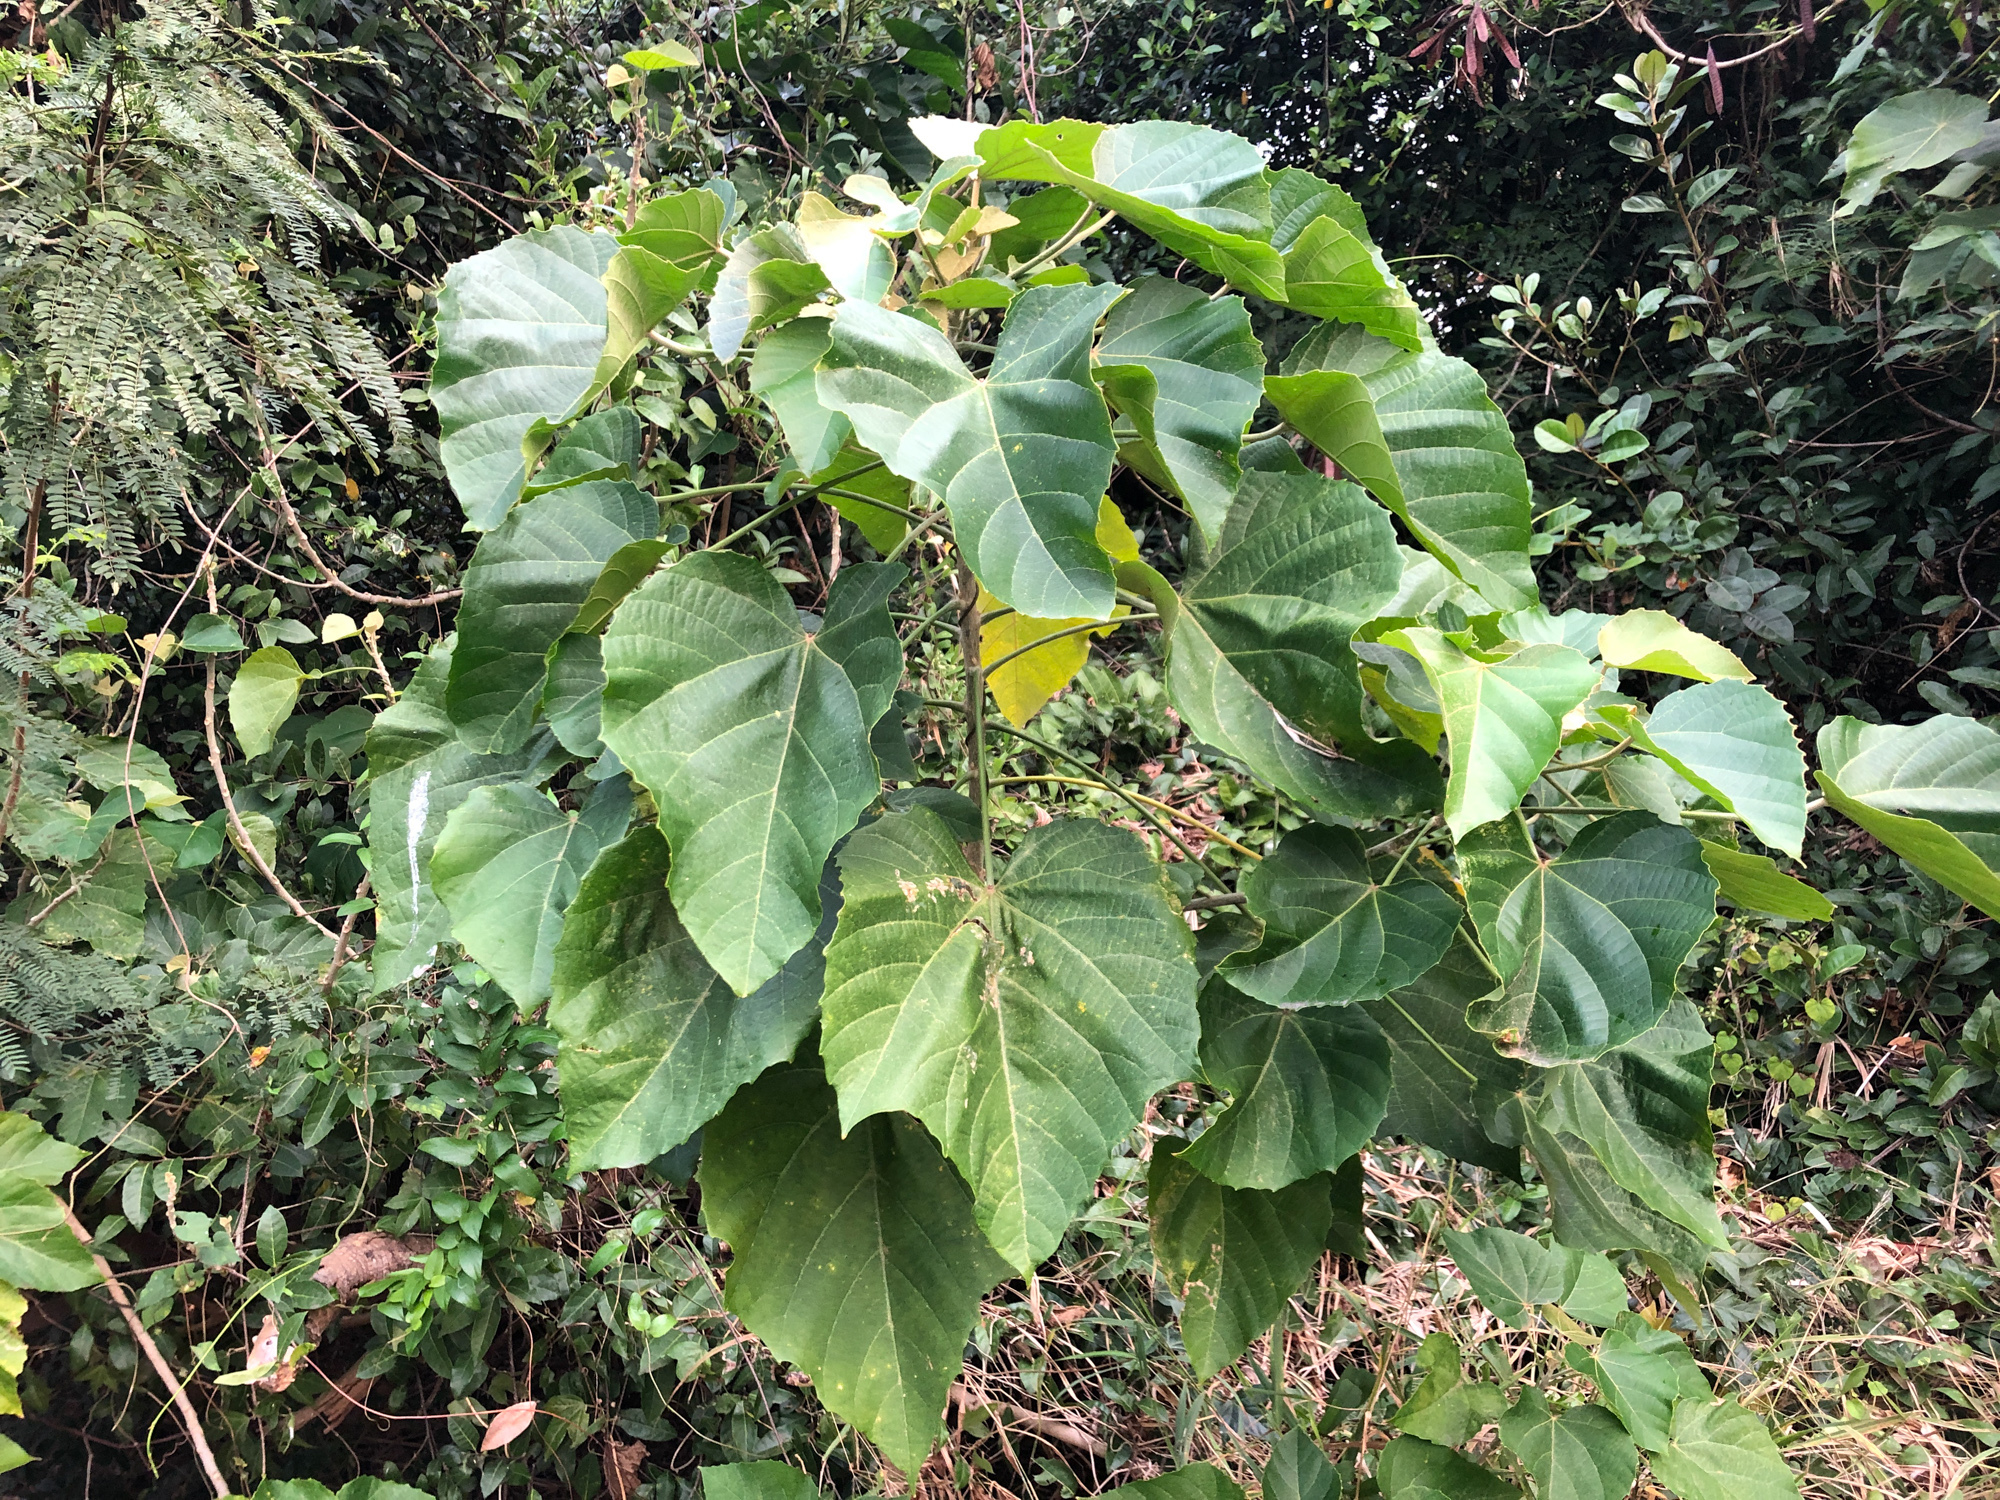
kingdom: Plantae
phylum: Tracheophyta
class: Magnoliopsida
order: Malpighiales
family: Euphorbiaceae
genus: Melanolepis
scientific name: Melanolepis multiglandulosa
